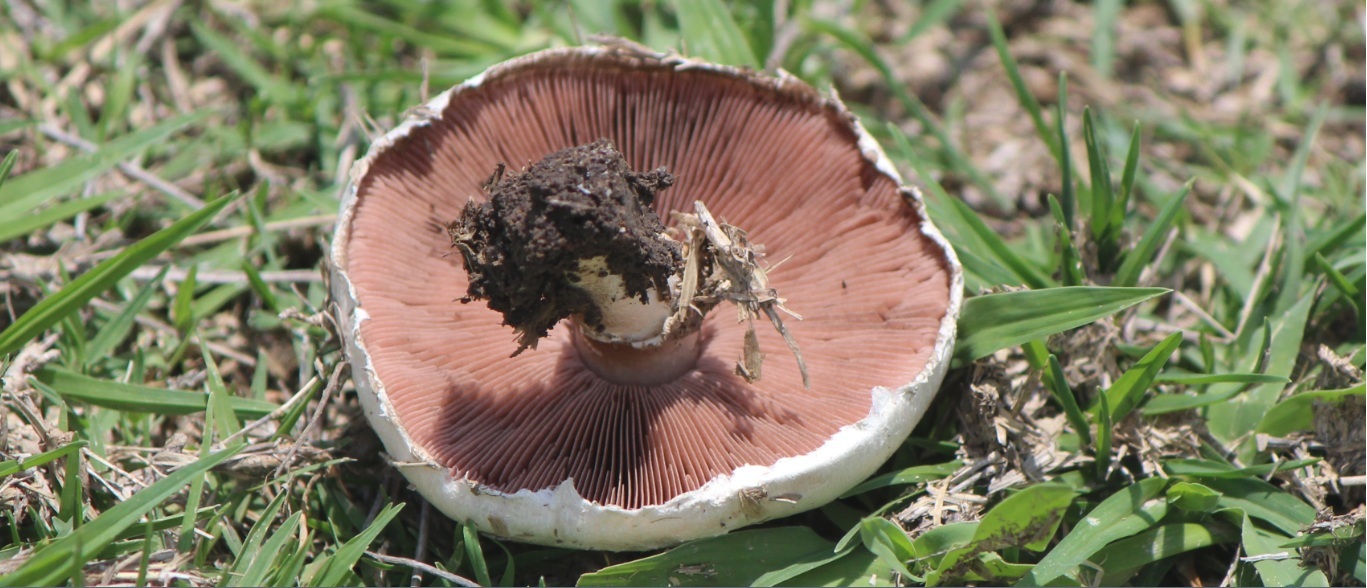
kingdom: Fungi
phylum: Basidiomycota
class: Agaricomycetes
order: Agaricales
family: Agaricaceae
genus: Agaricus
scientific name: Agaricus campestris
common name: Field mushroom
